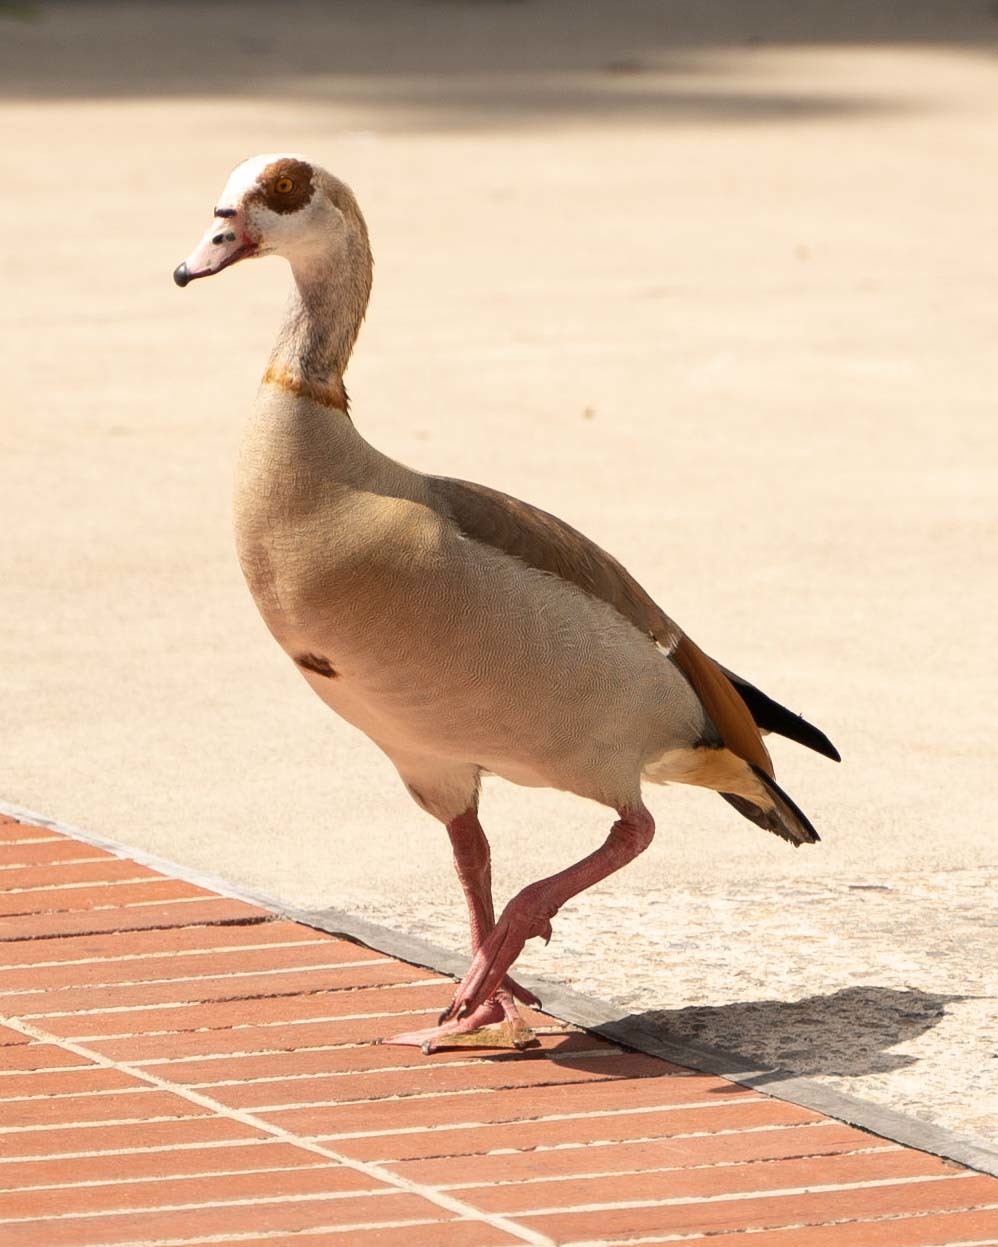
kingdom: Animalia
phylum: Chordata
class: Aves
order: Anseriformes
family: Anatidae
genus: Alopochen
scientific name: Alopochen aegyptiaca
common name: Egyptian goose
